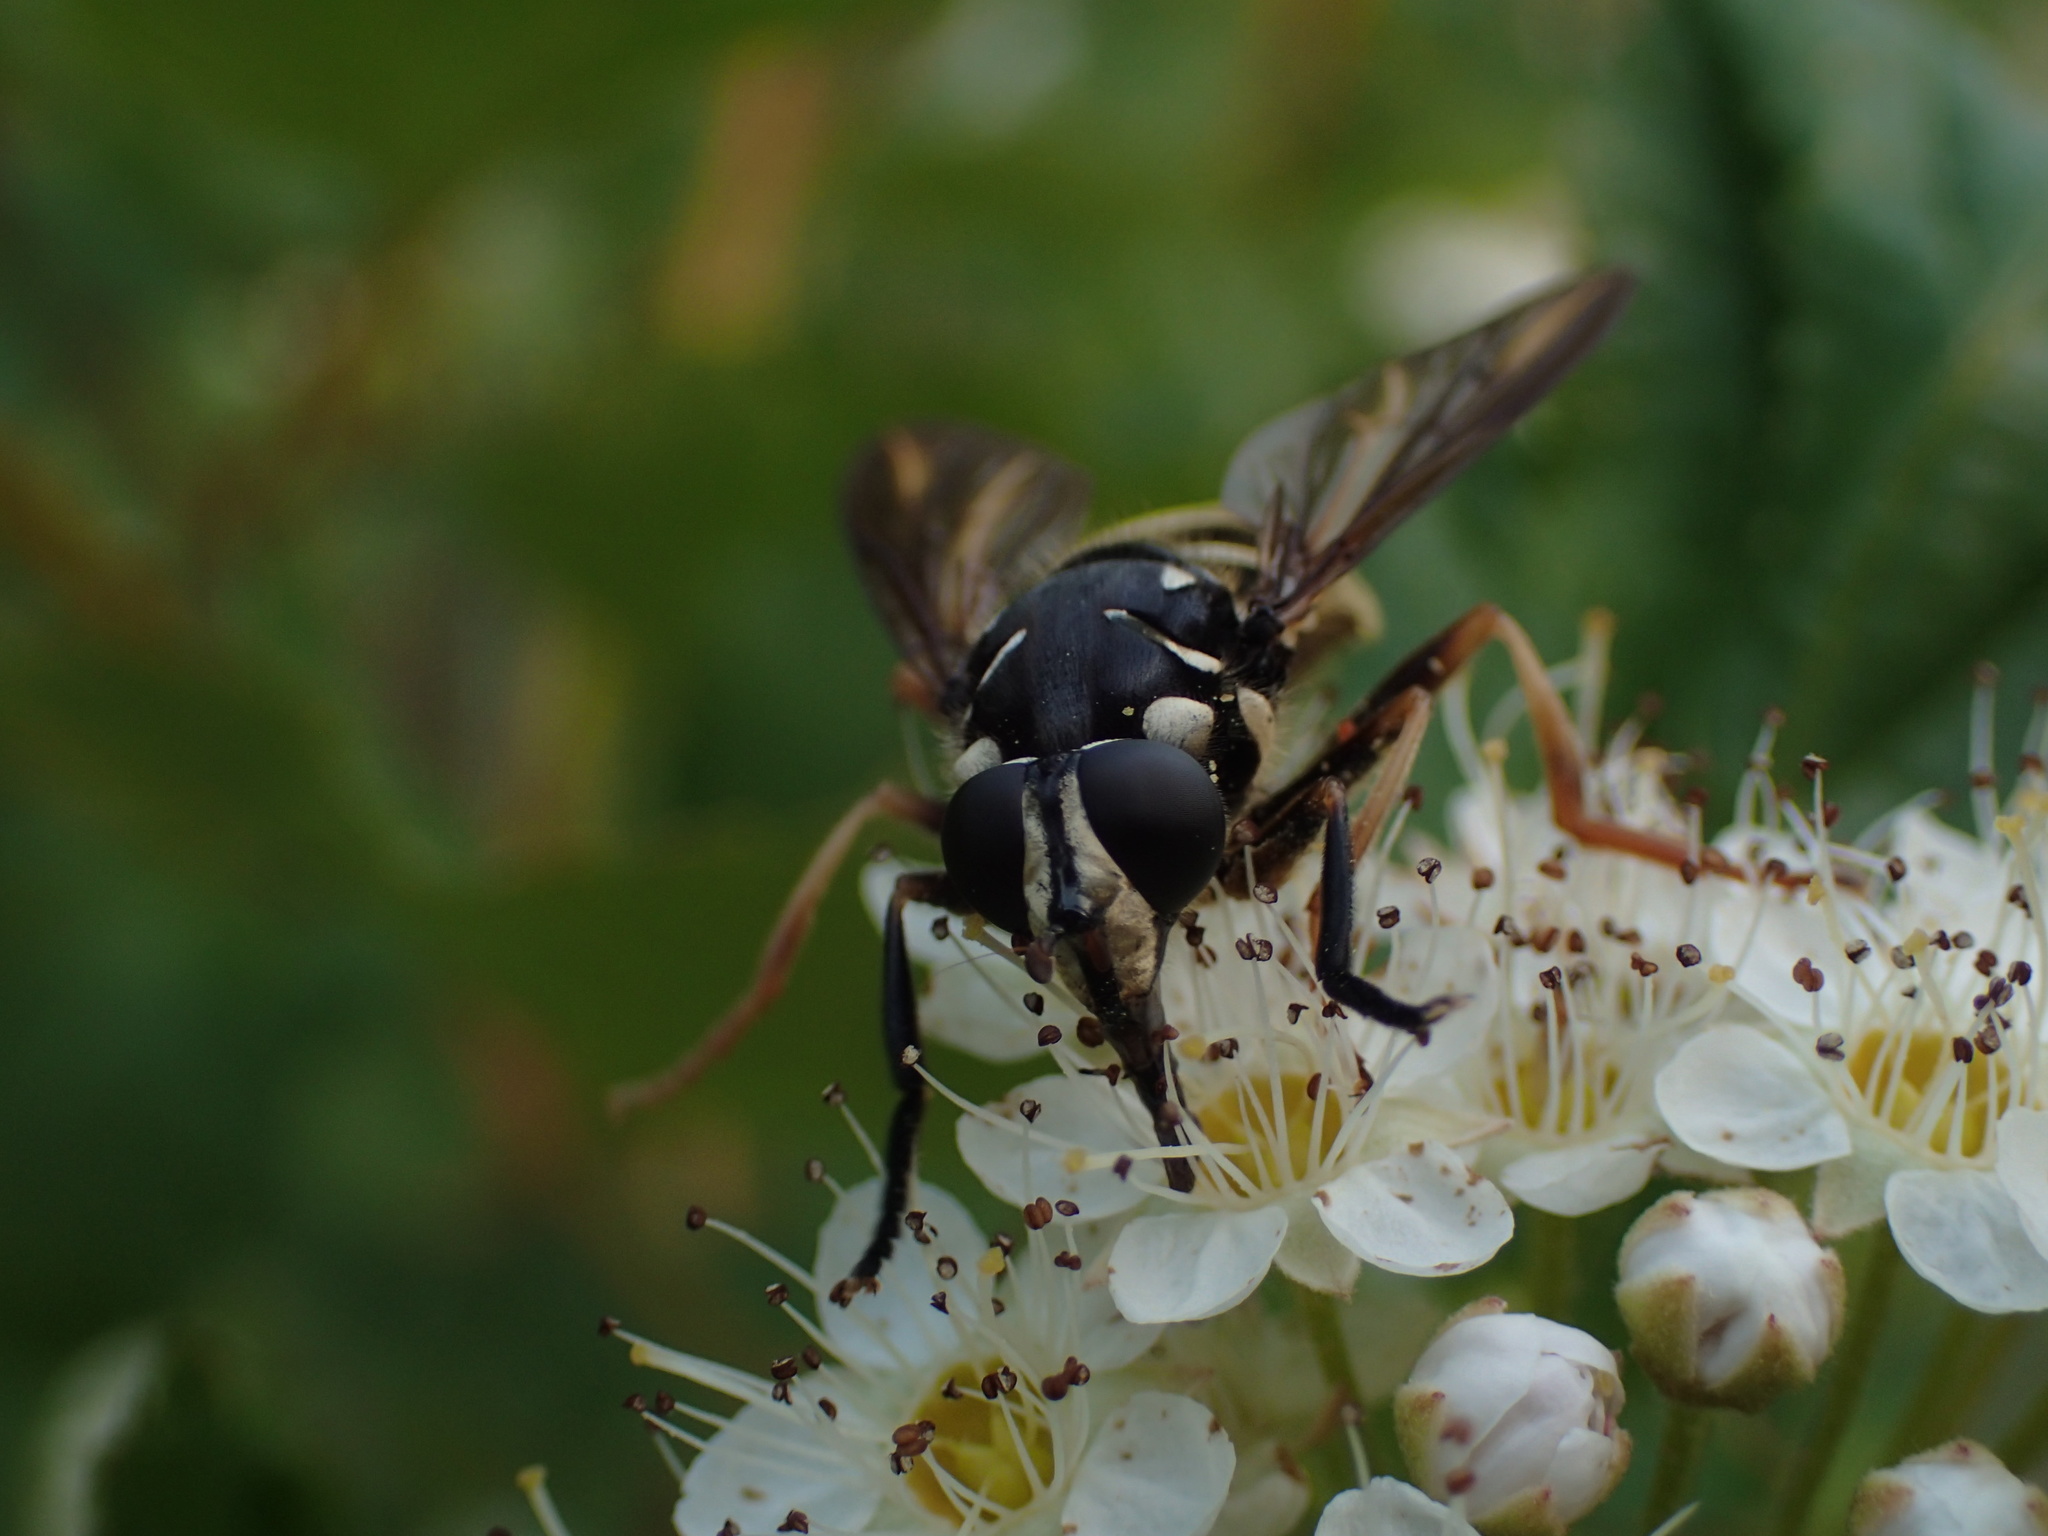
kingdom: Animalia
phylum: Arthropoda
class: Insecta
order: Diptera
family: Syrphidae
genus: Temnostoma
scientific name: Temnostoma excentricum
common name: Black-spotted falsehorn
